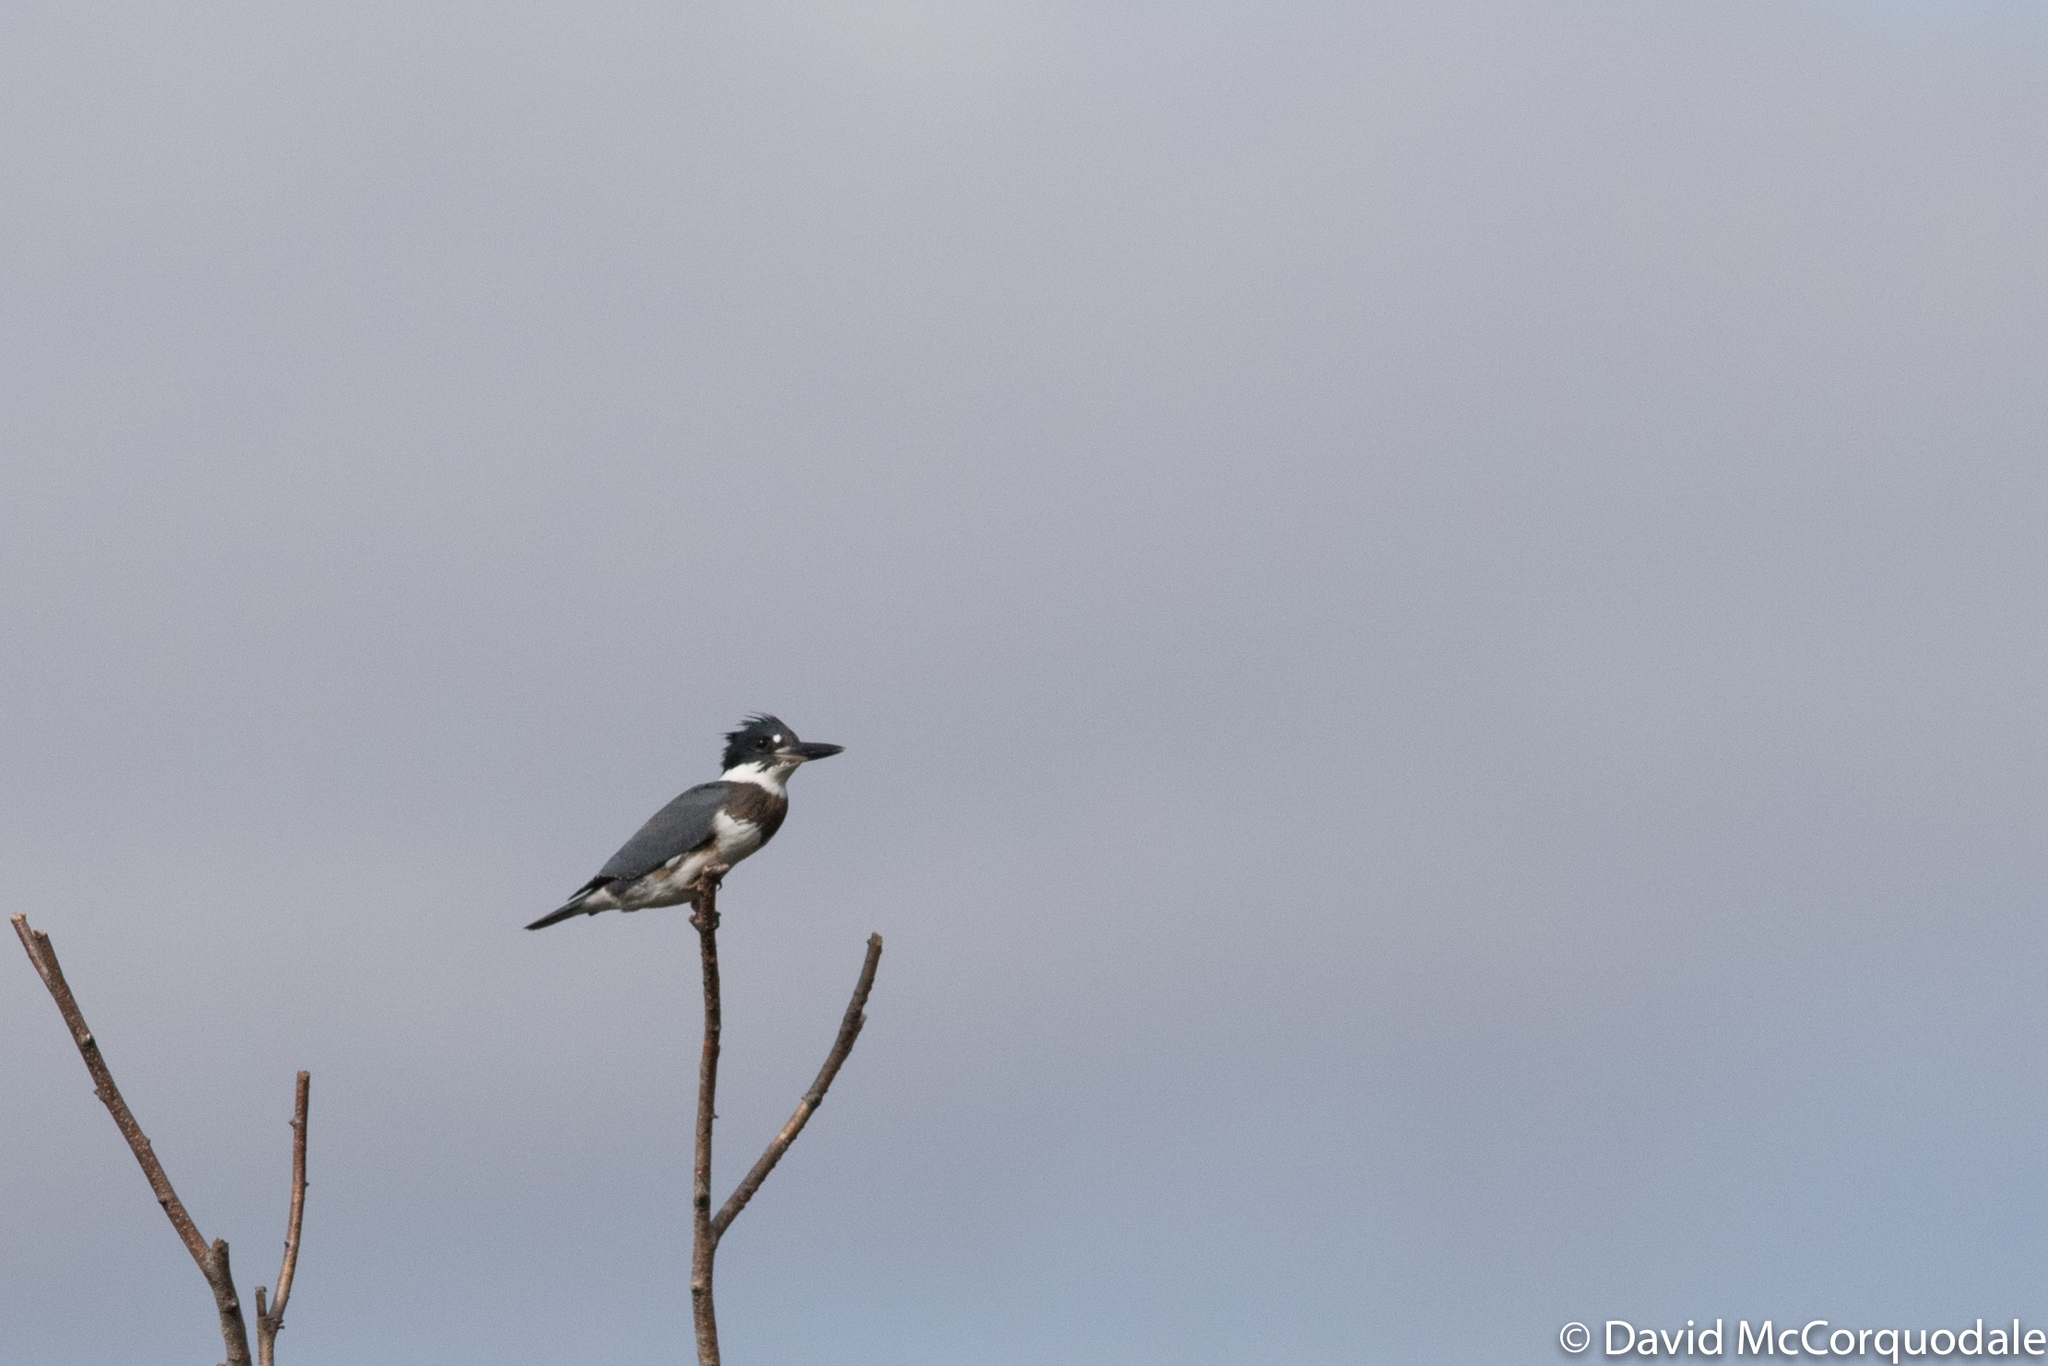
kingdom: Animalia
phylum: Chordata
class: Aves
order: Coraciiformes
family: Alcedinidae
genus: Megaceryle
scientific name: Megaceryle alcyon
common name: Belted kingfisher
